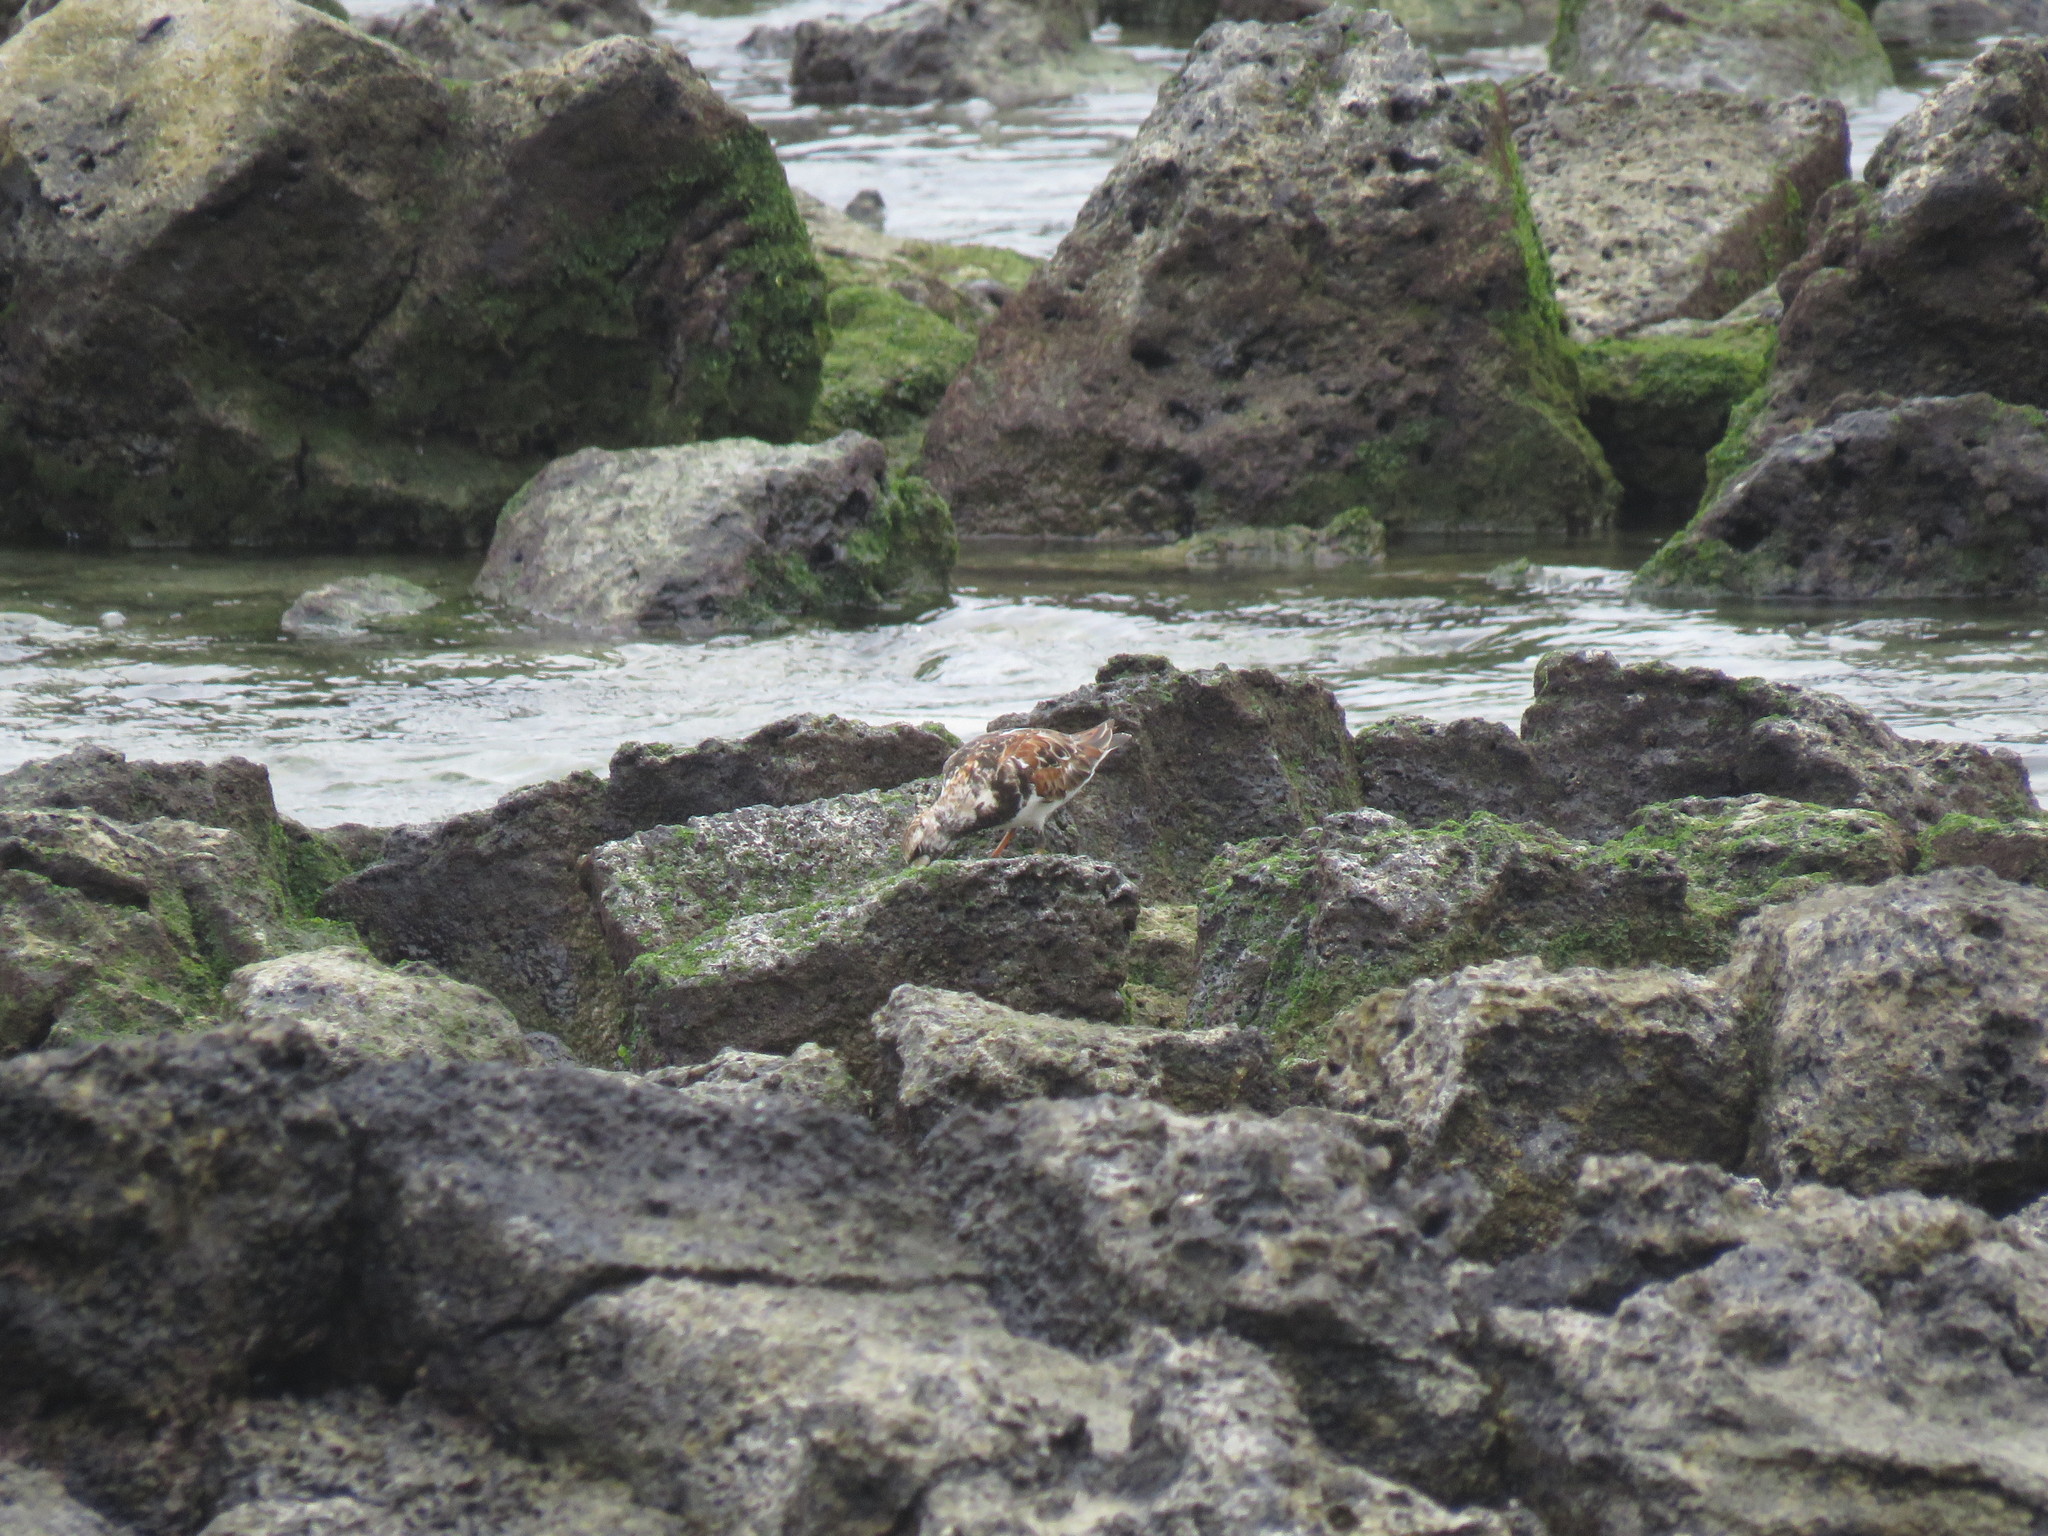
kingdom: Animalia
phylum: Chordata
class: Aves
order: Charadriiformes
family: Scolopacidae
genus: Arenaria
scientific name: Arenaria interpres
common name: Ruddy turnstone
